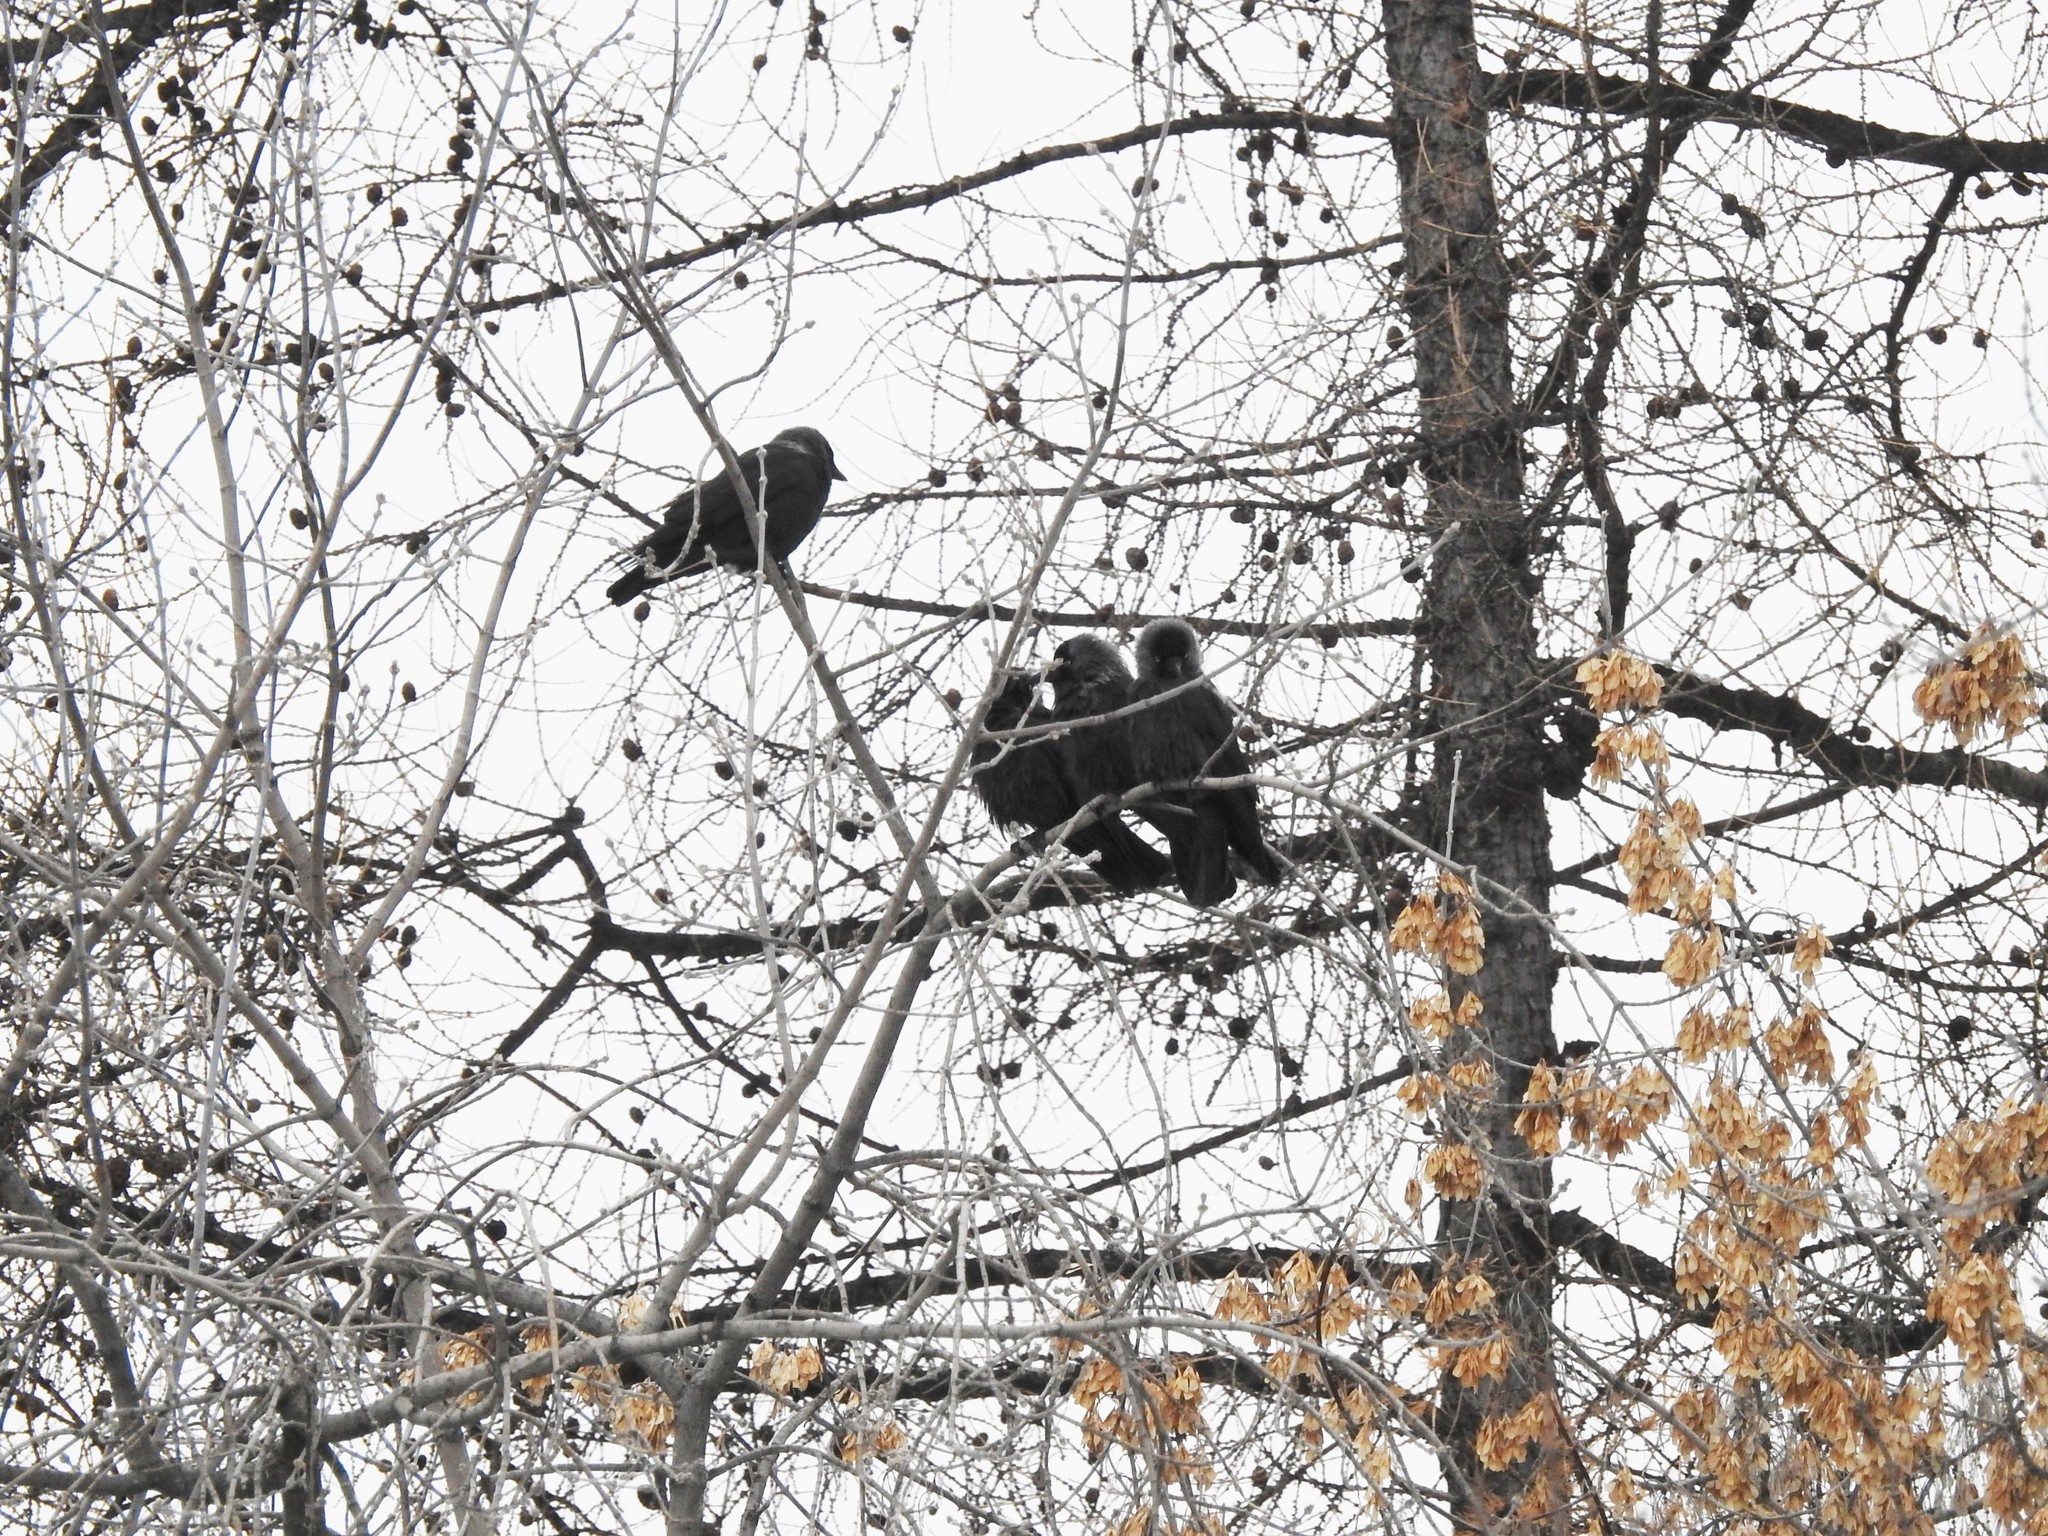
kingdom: Animalia
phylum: Chordata
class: Aves
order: Passeriformes
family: Corvidae
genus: Coloeus
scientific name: Coloeus monedula
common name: Western jackdaw
